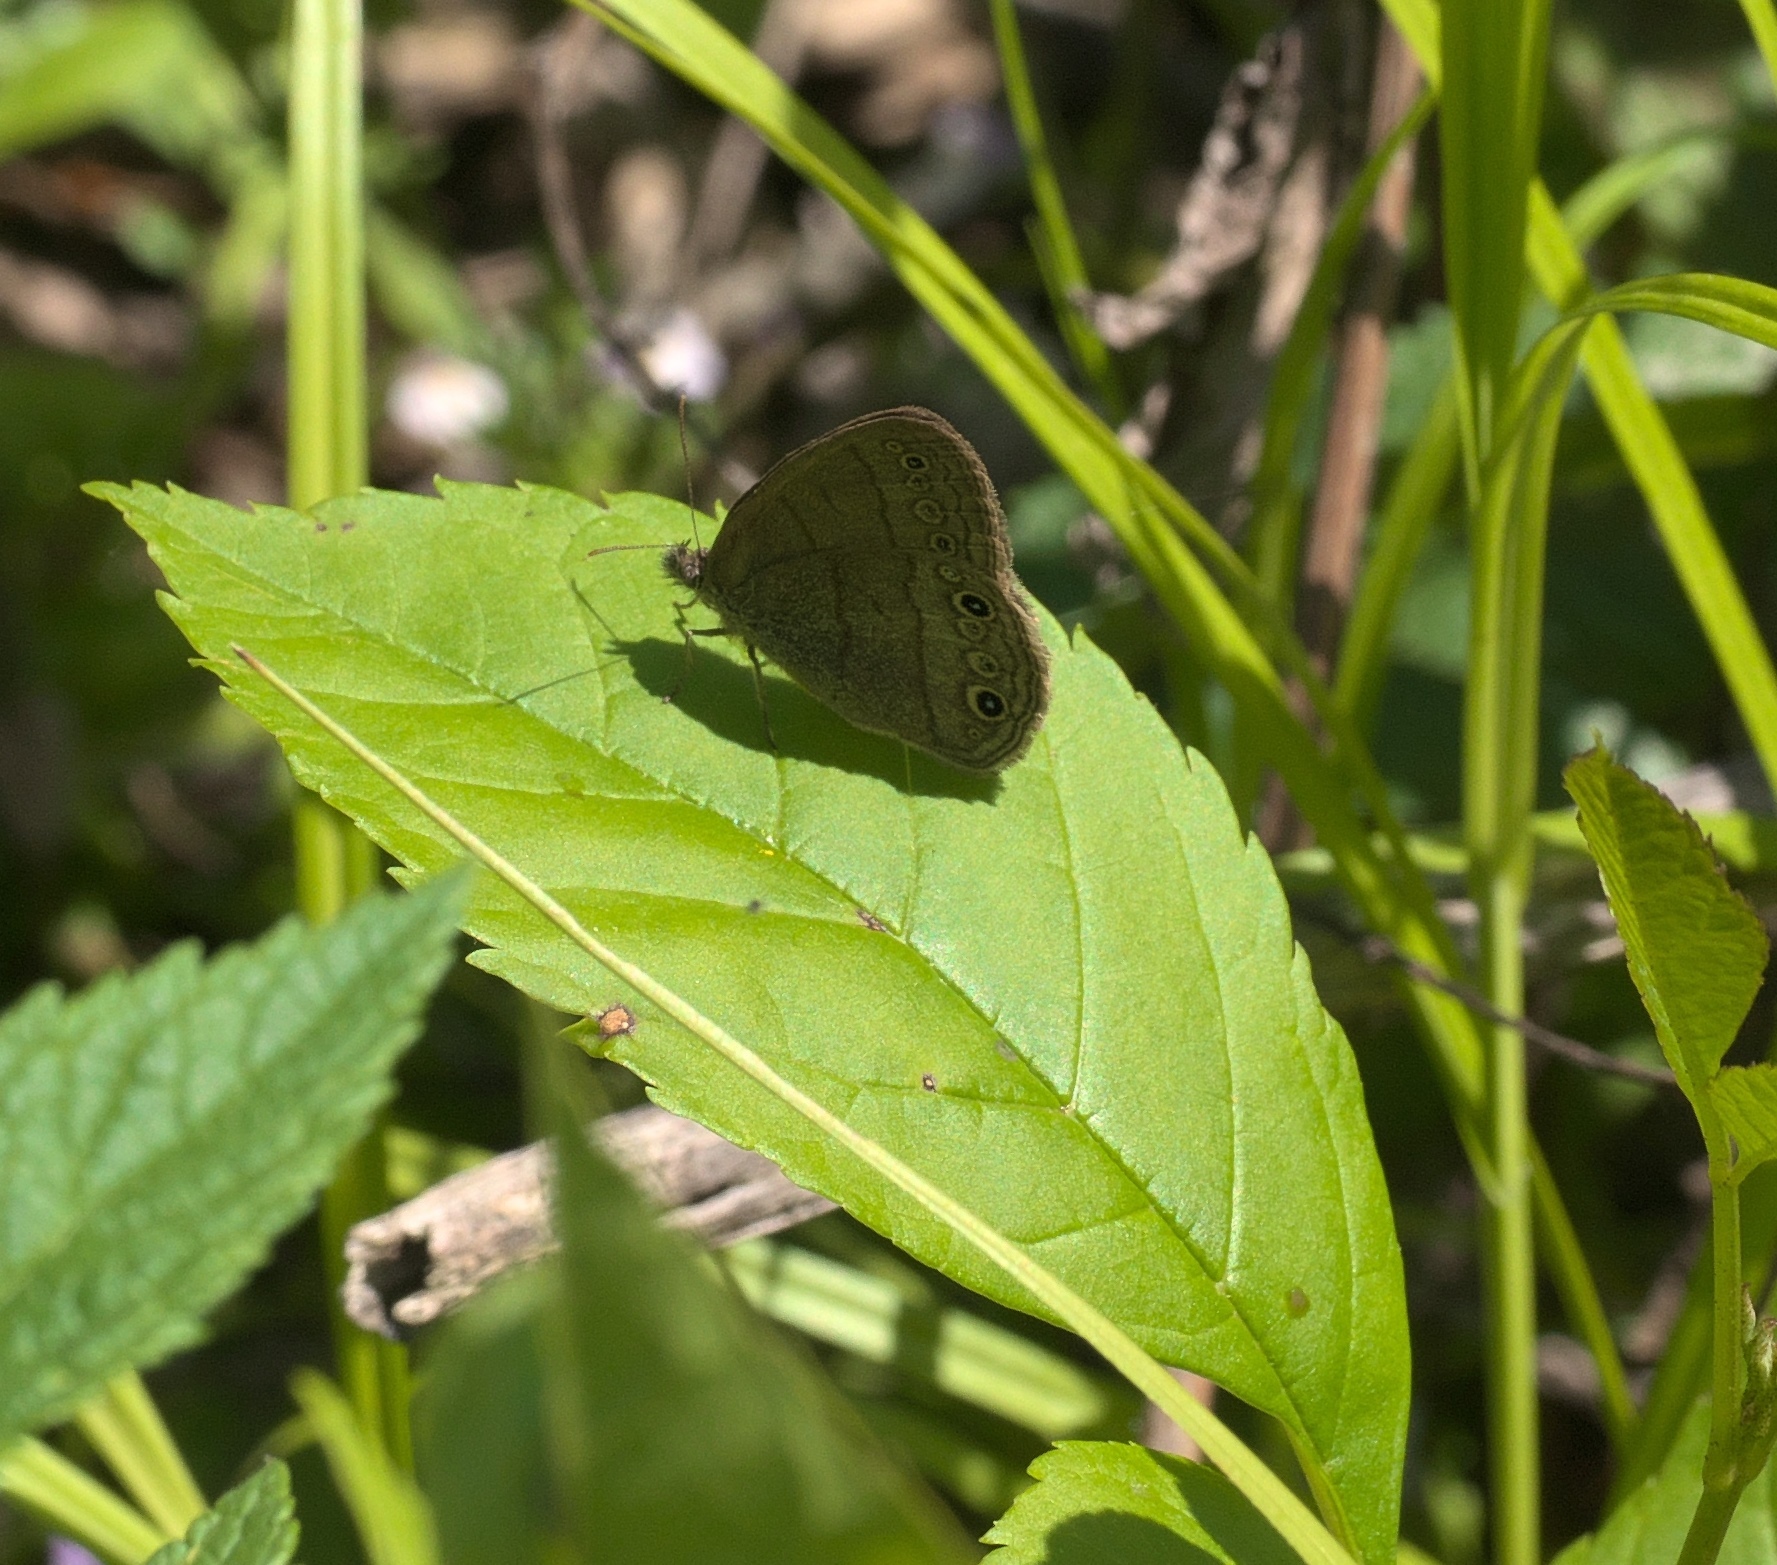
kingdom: Animalia
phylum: Arthropoda
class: Insecta
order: Lepidoptera
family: Nymphalidae
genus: Hermeuptychia
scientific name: Hermeuptychia hermes
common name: Hermes satyr
